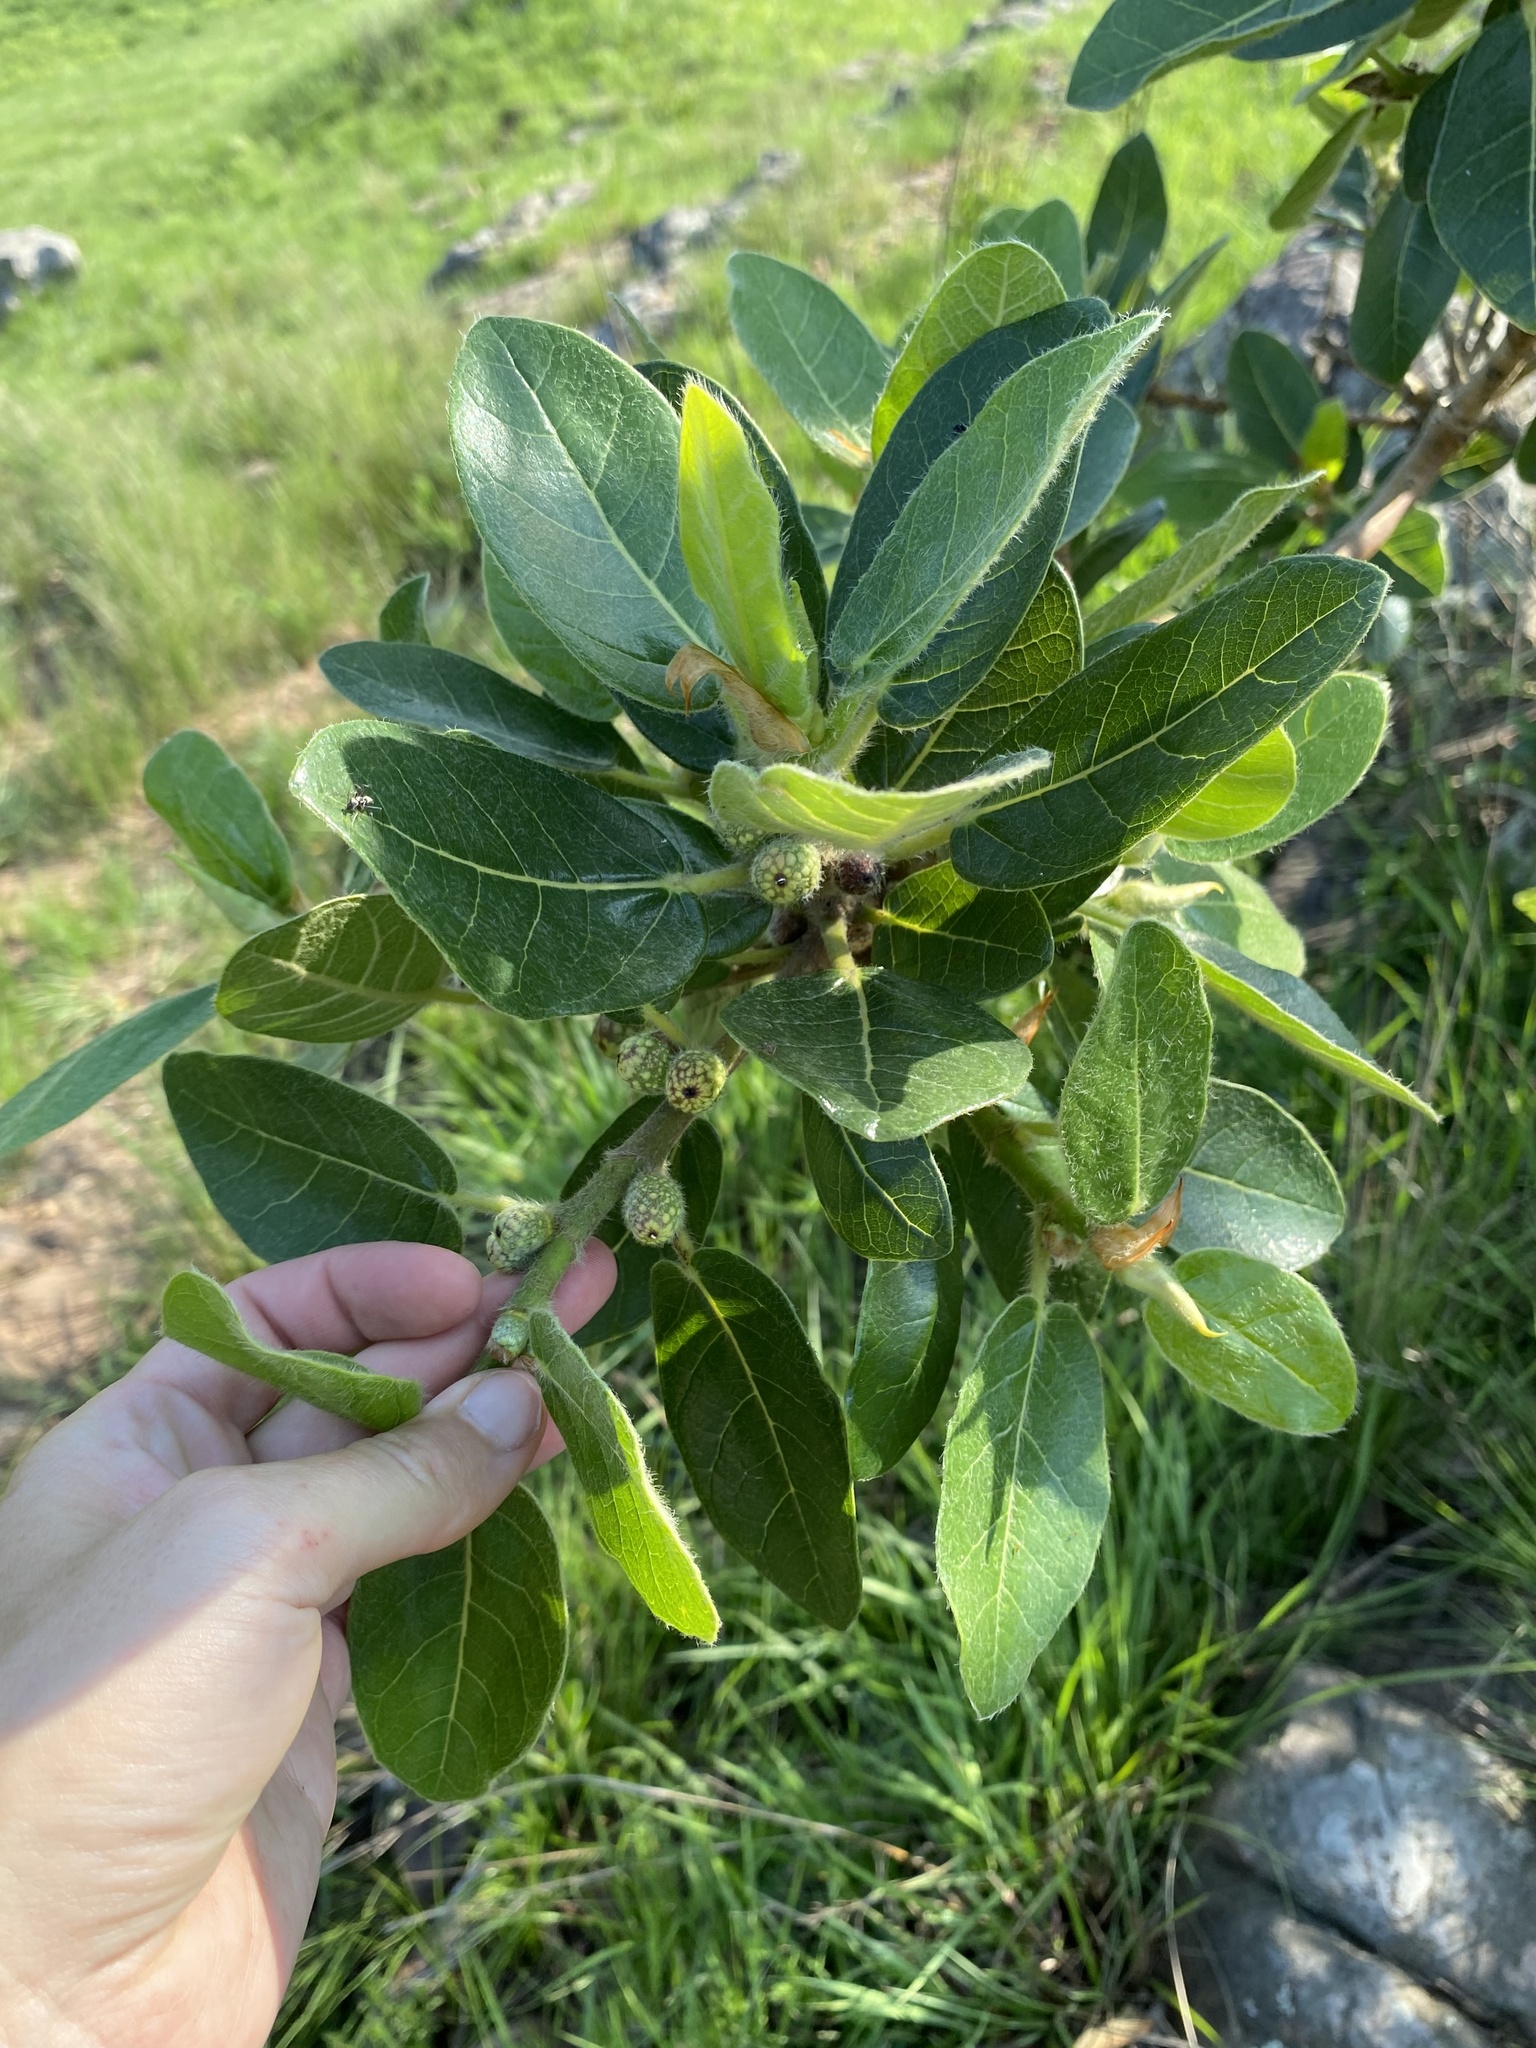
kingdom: Plantae
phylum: Tracheophyta
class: Magnoliopsida
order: Rosales
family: Moraceae
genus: Ficus
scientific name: Ficus glumosa
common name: Hairy rock fig
